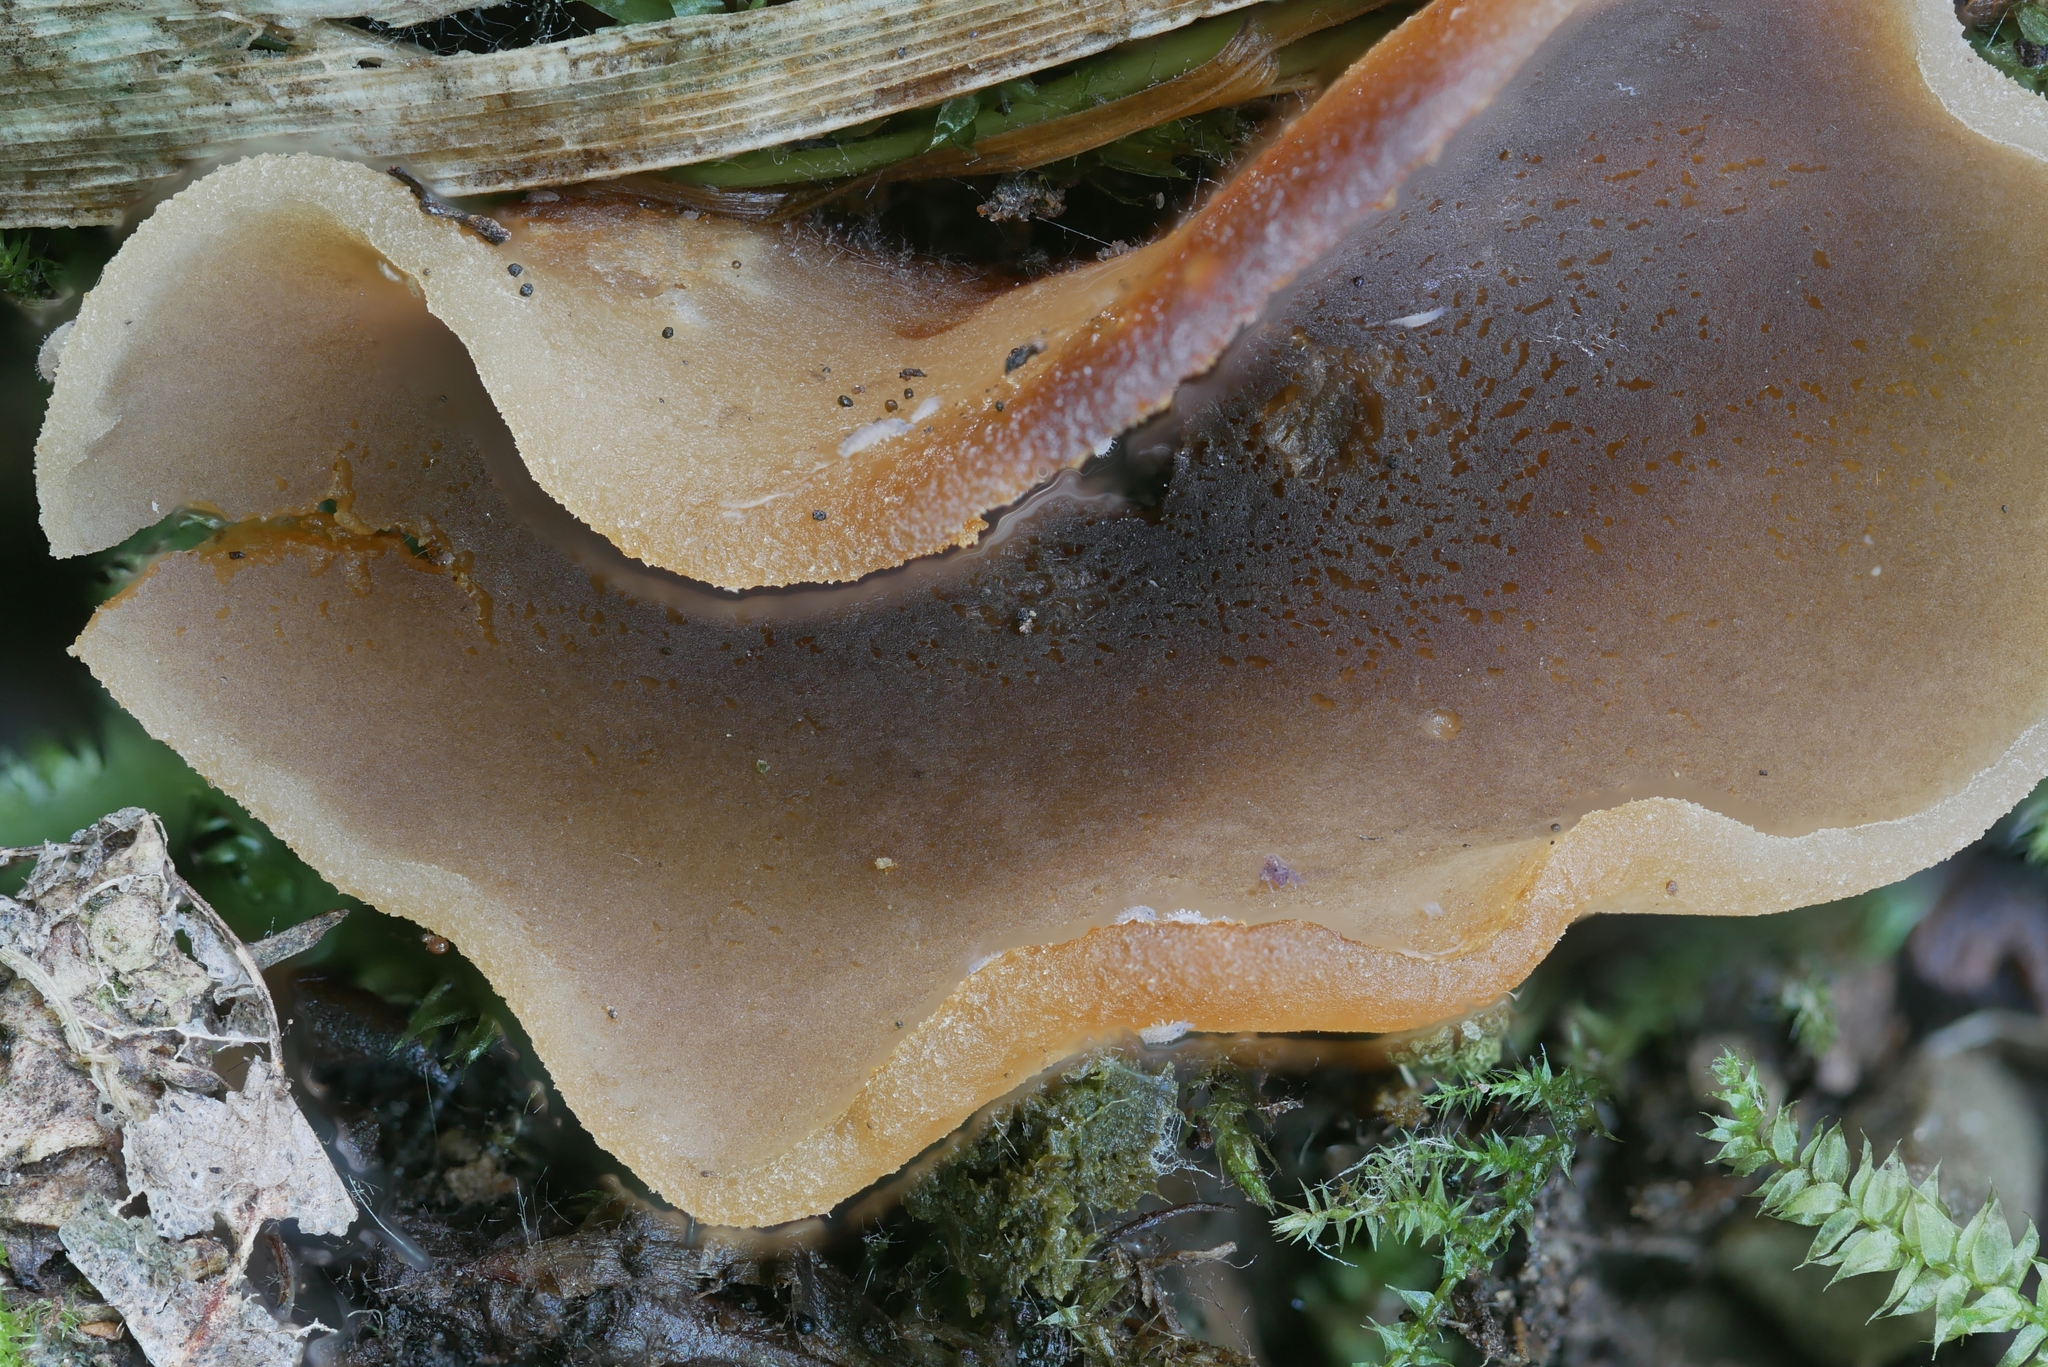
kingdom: Fungi
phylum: Ascomycota
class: Pezizomycetes
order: Pezizales
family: Pezizaceae
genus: Pachyella
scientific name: Pachyella celtica
